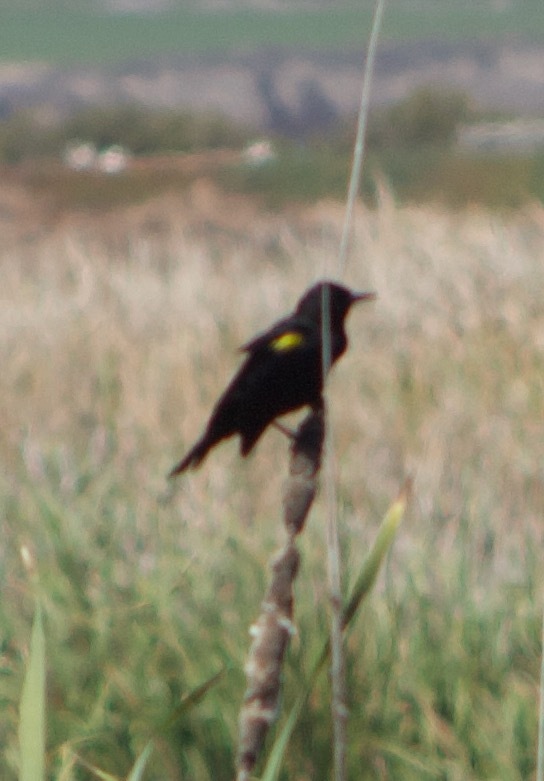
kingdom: Animalia
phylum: Chordata
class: Aves
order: Passeriformes
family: Icteridae
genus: Agelasticus
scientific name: Agelasticus thilius
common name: Yellow-winged blackbird
